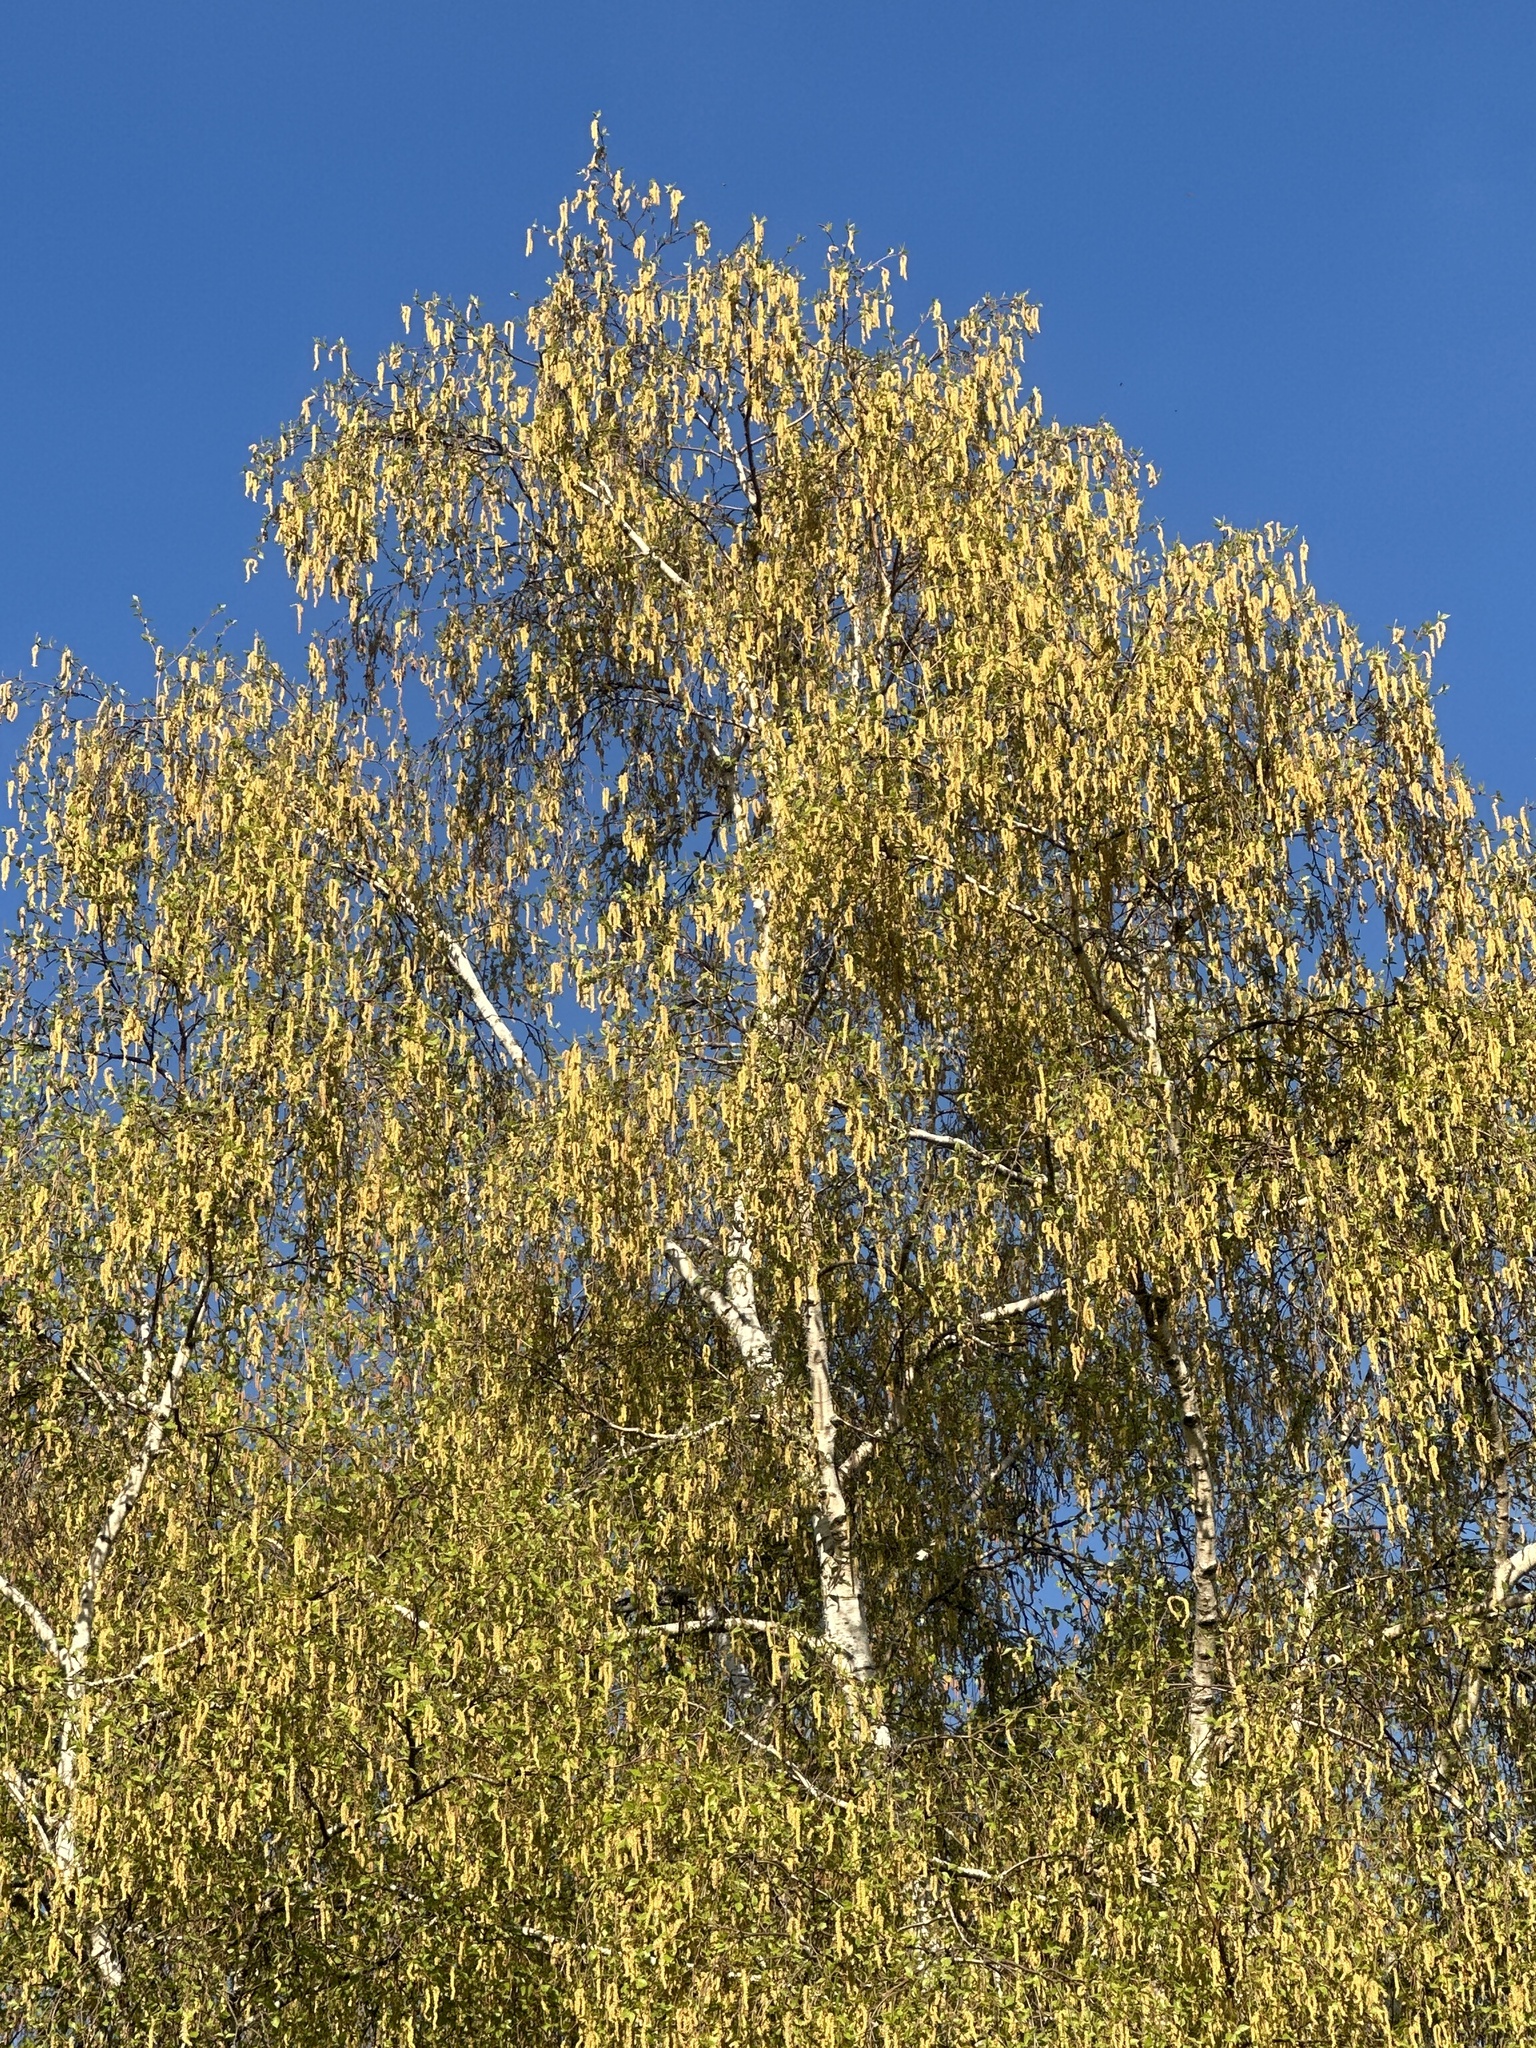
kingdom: Plantae
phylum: Tracheophyta
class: Magnoliopsida
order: Fagales
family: Betulaceae
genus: Betula
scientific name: Betula pendula
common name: Silver birch
